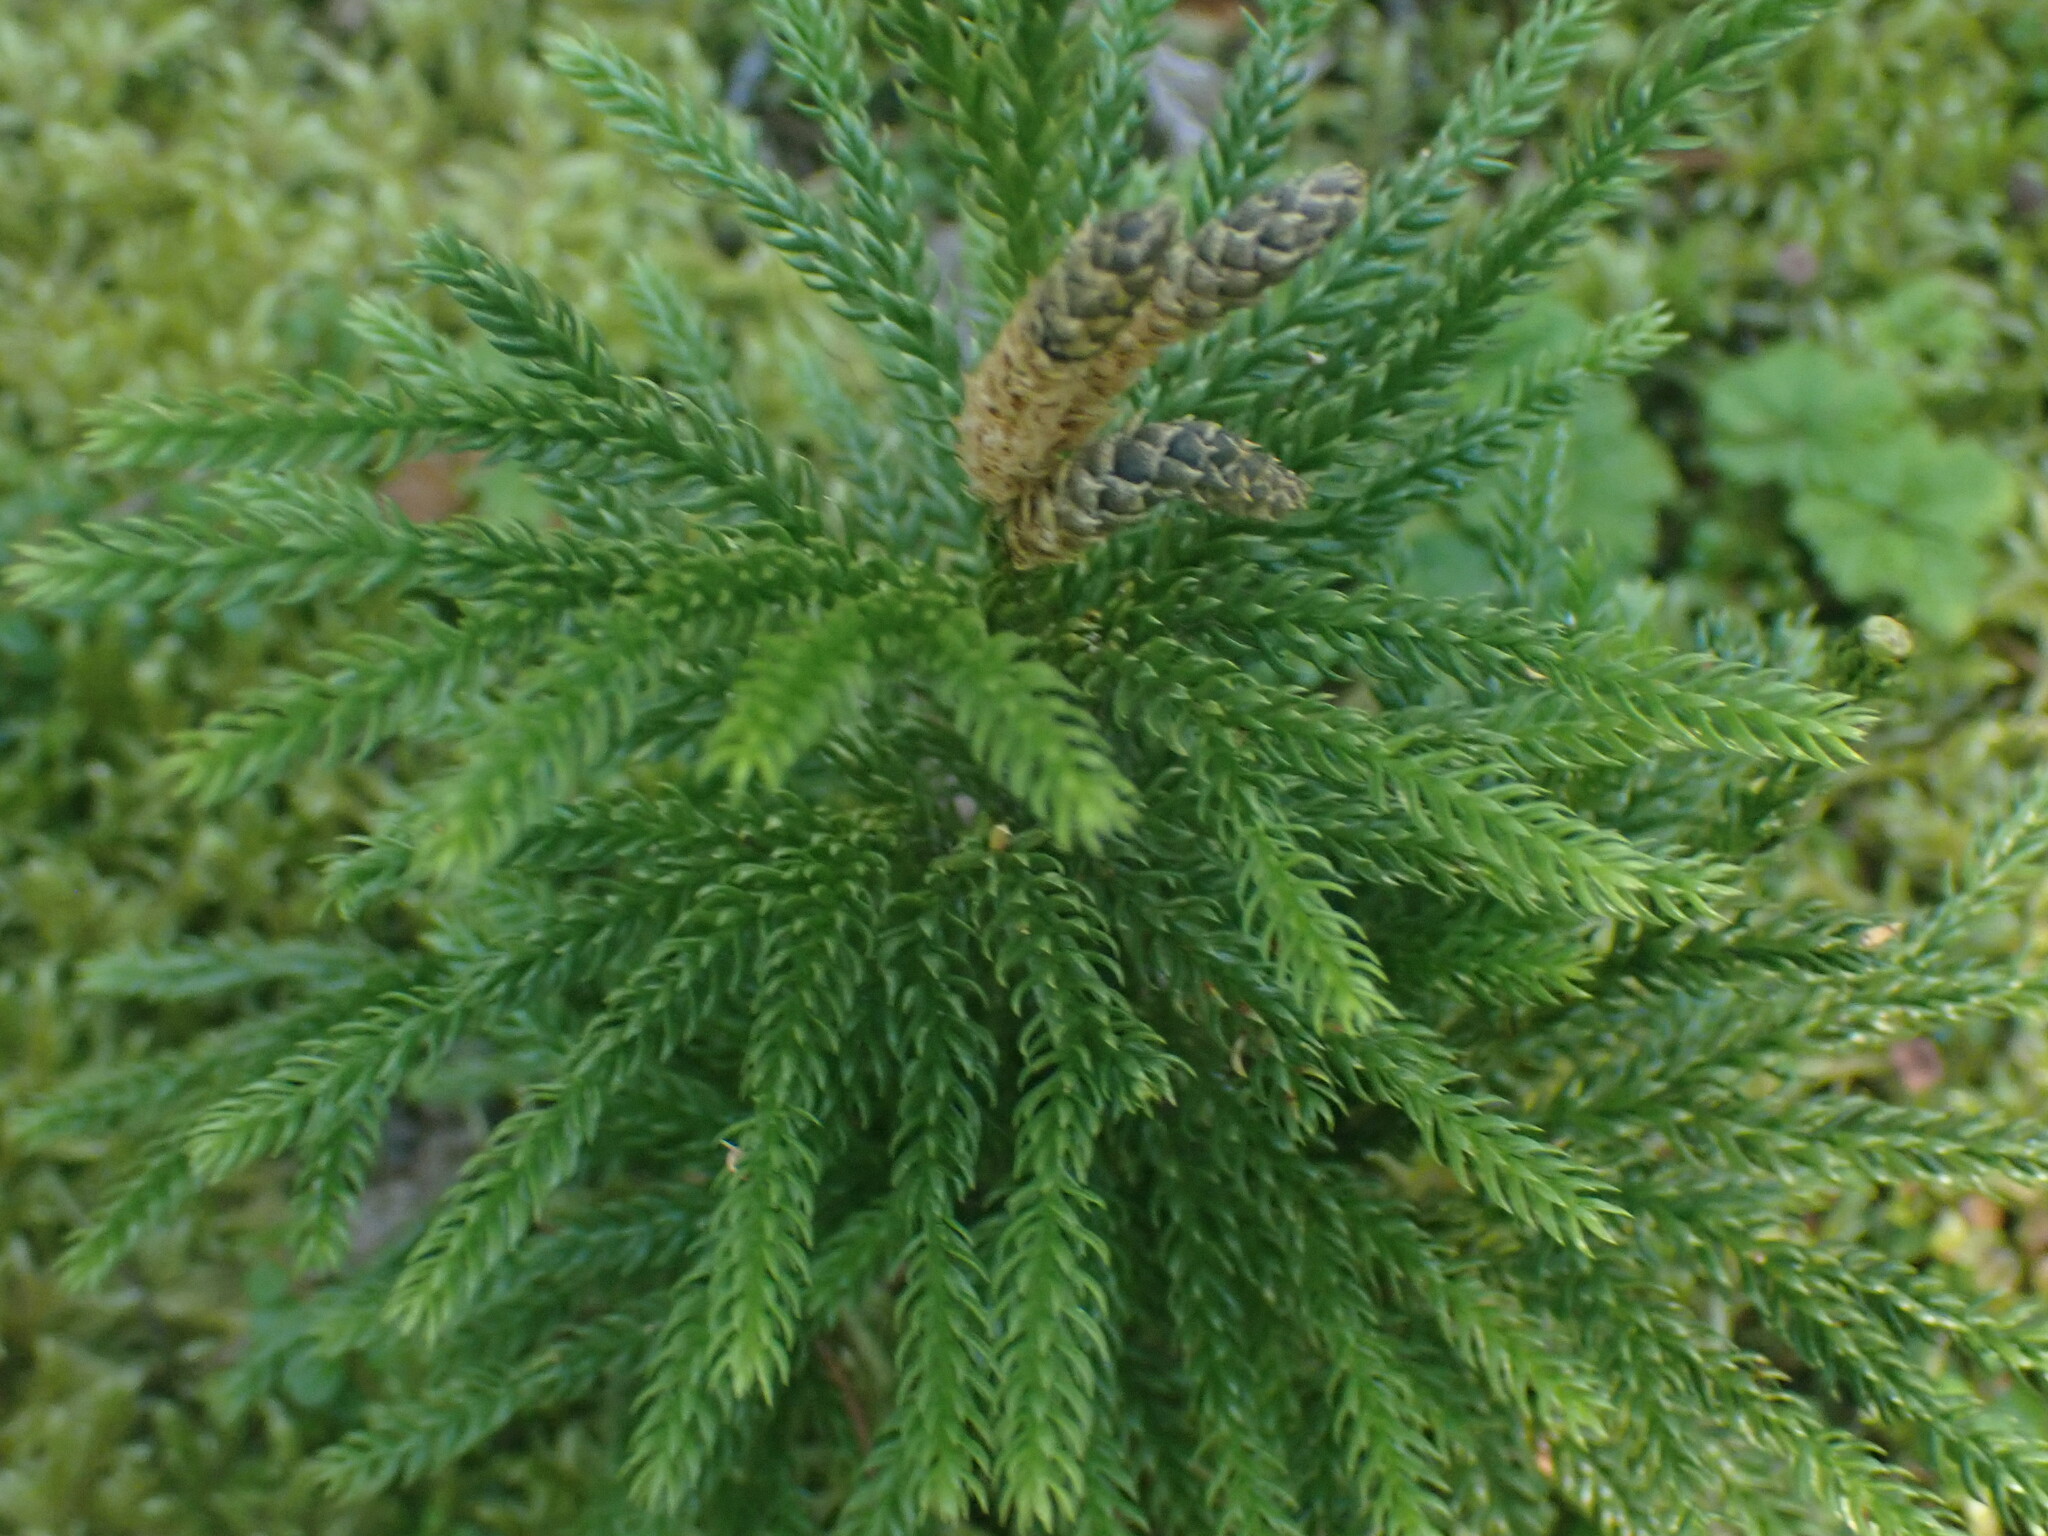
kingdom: Plantae
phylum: Tracheophyta
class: Lycopodiopsida
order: Lycopodiales
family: Lycopodiaceae
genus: Dendrolycopodium
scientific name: Dendrolycopodium dendroideum
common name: Northern tree-clubmoss
